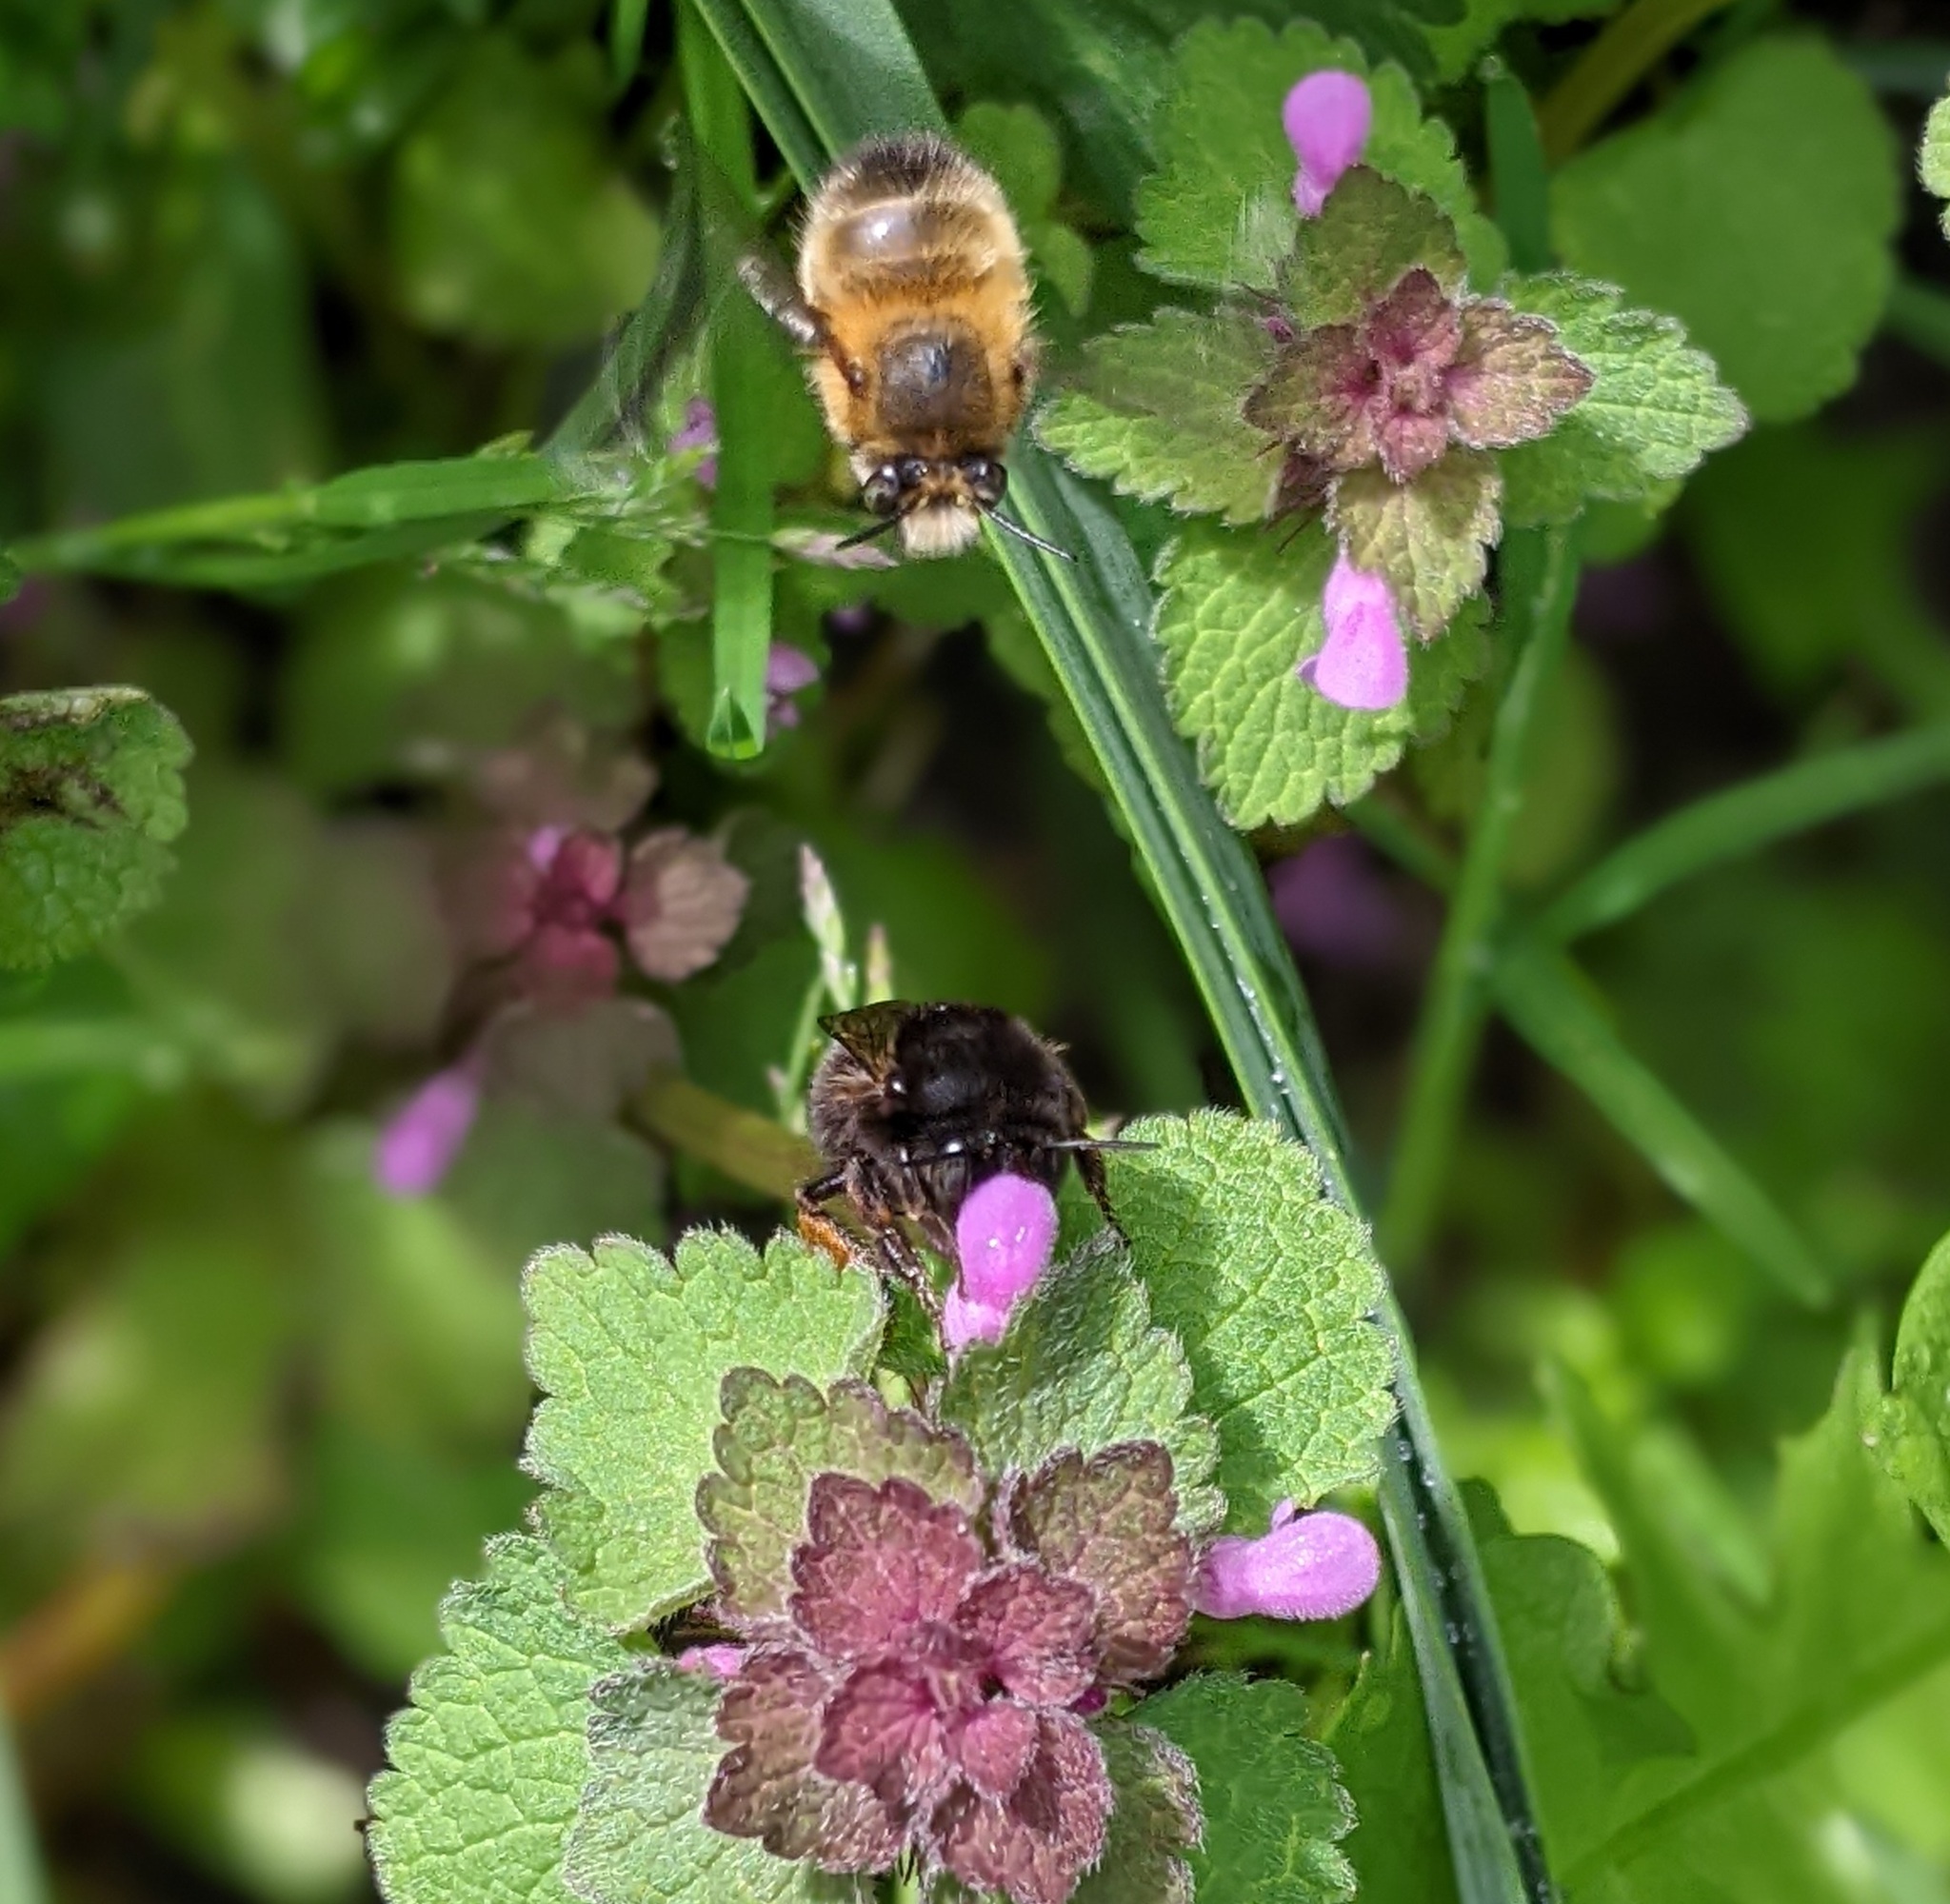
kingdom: Animalia
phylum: Arthropoda
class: Insecta
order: Hymenoptera
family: Apidae
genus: Anthophora
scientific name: Anthophora plumipes
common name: Hairy-footed flower bee
